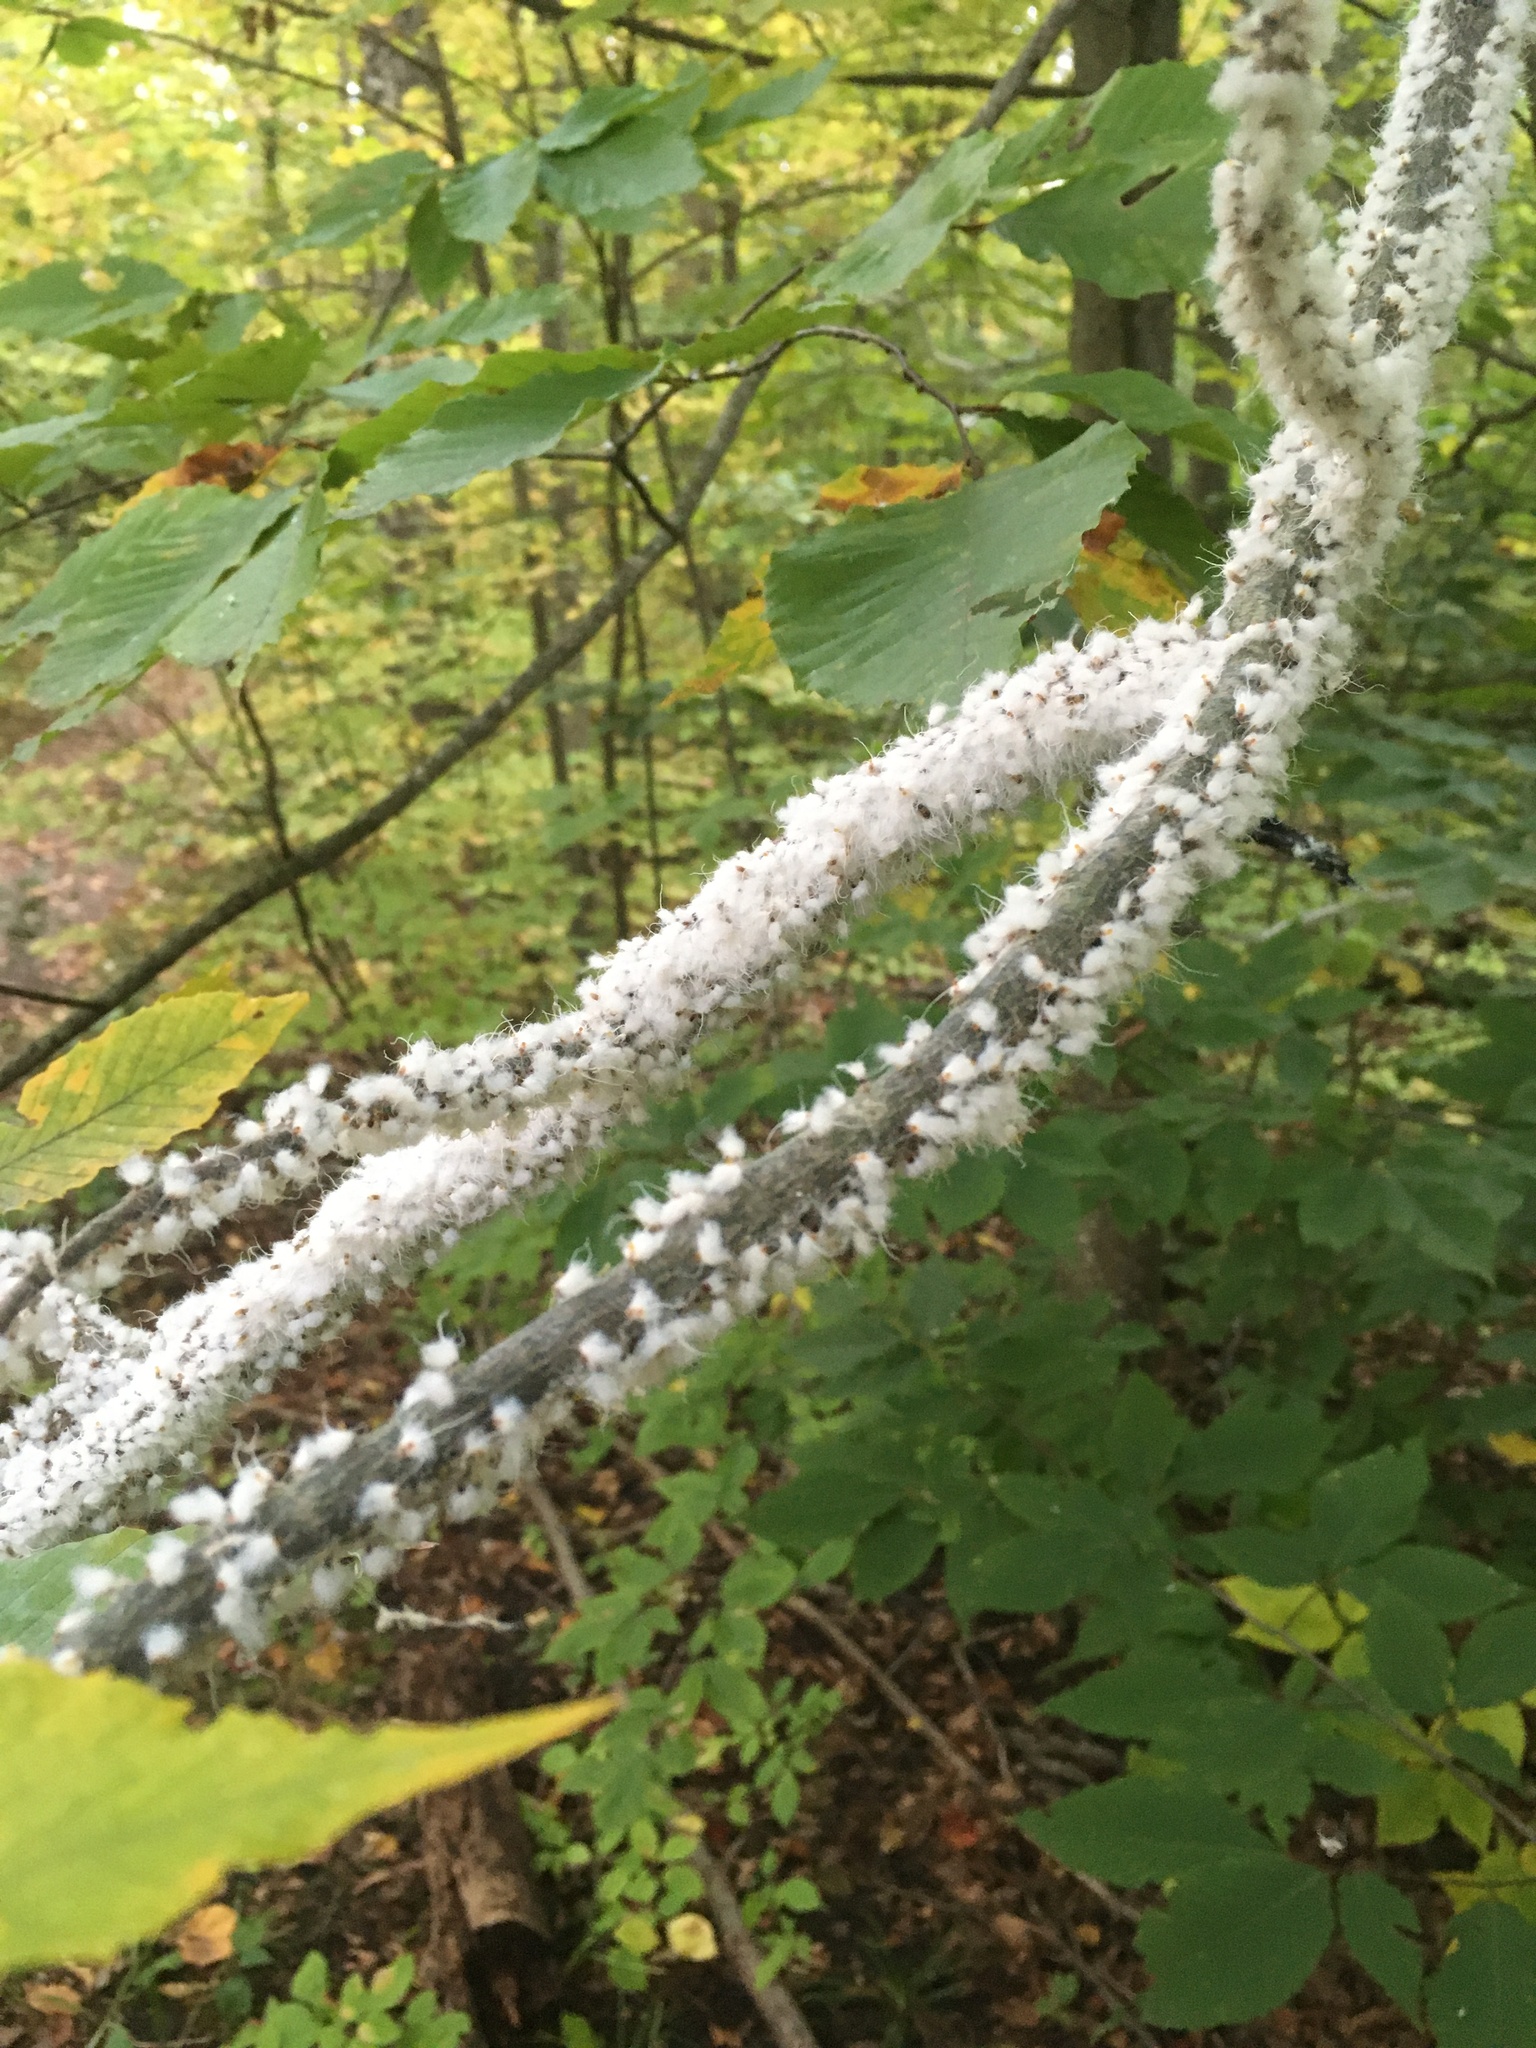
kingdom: Animalia
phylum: Arthropoda
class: Insecta
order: Hemiptera
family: Aphididae
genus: Grylloprociphilus
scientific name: Grylloprociphilus imbricator
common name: Beech blight aphid
